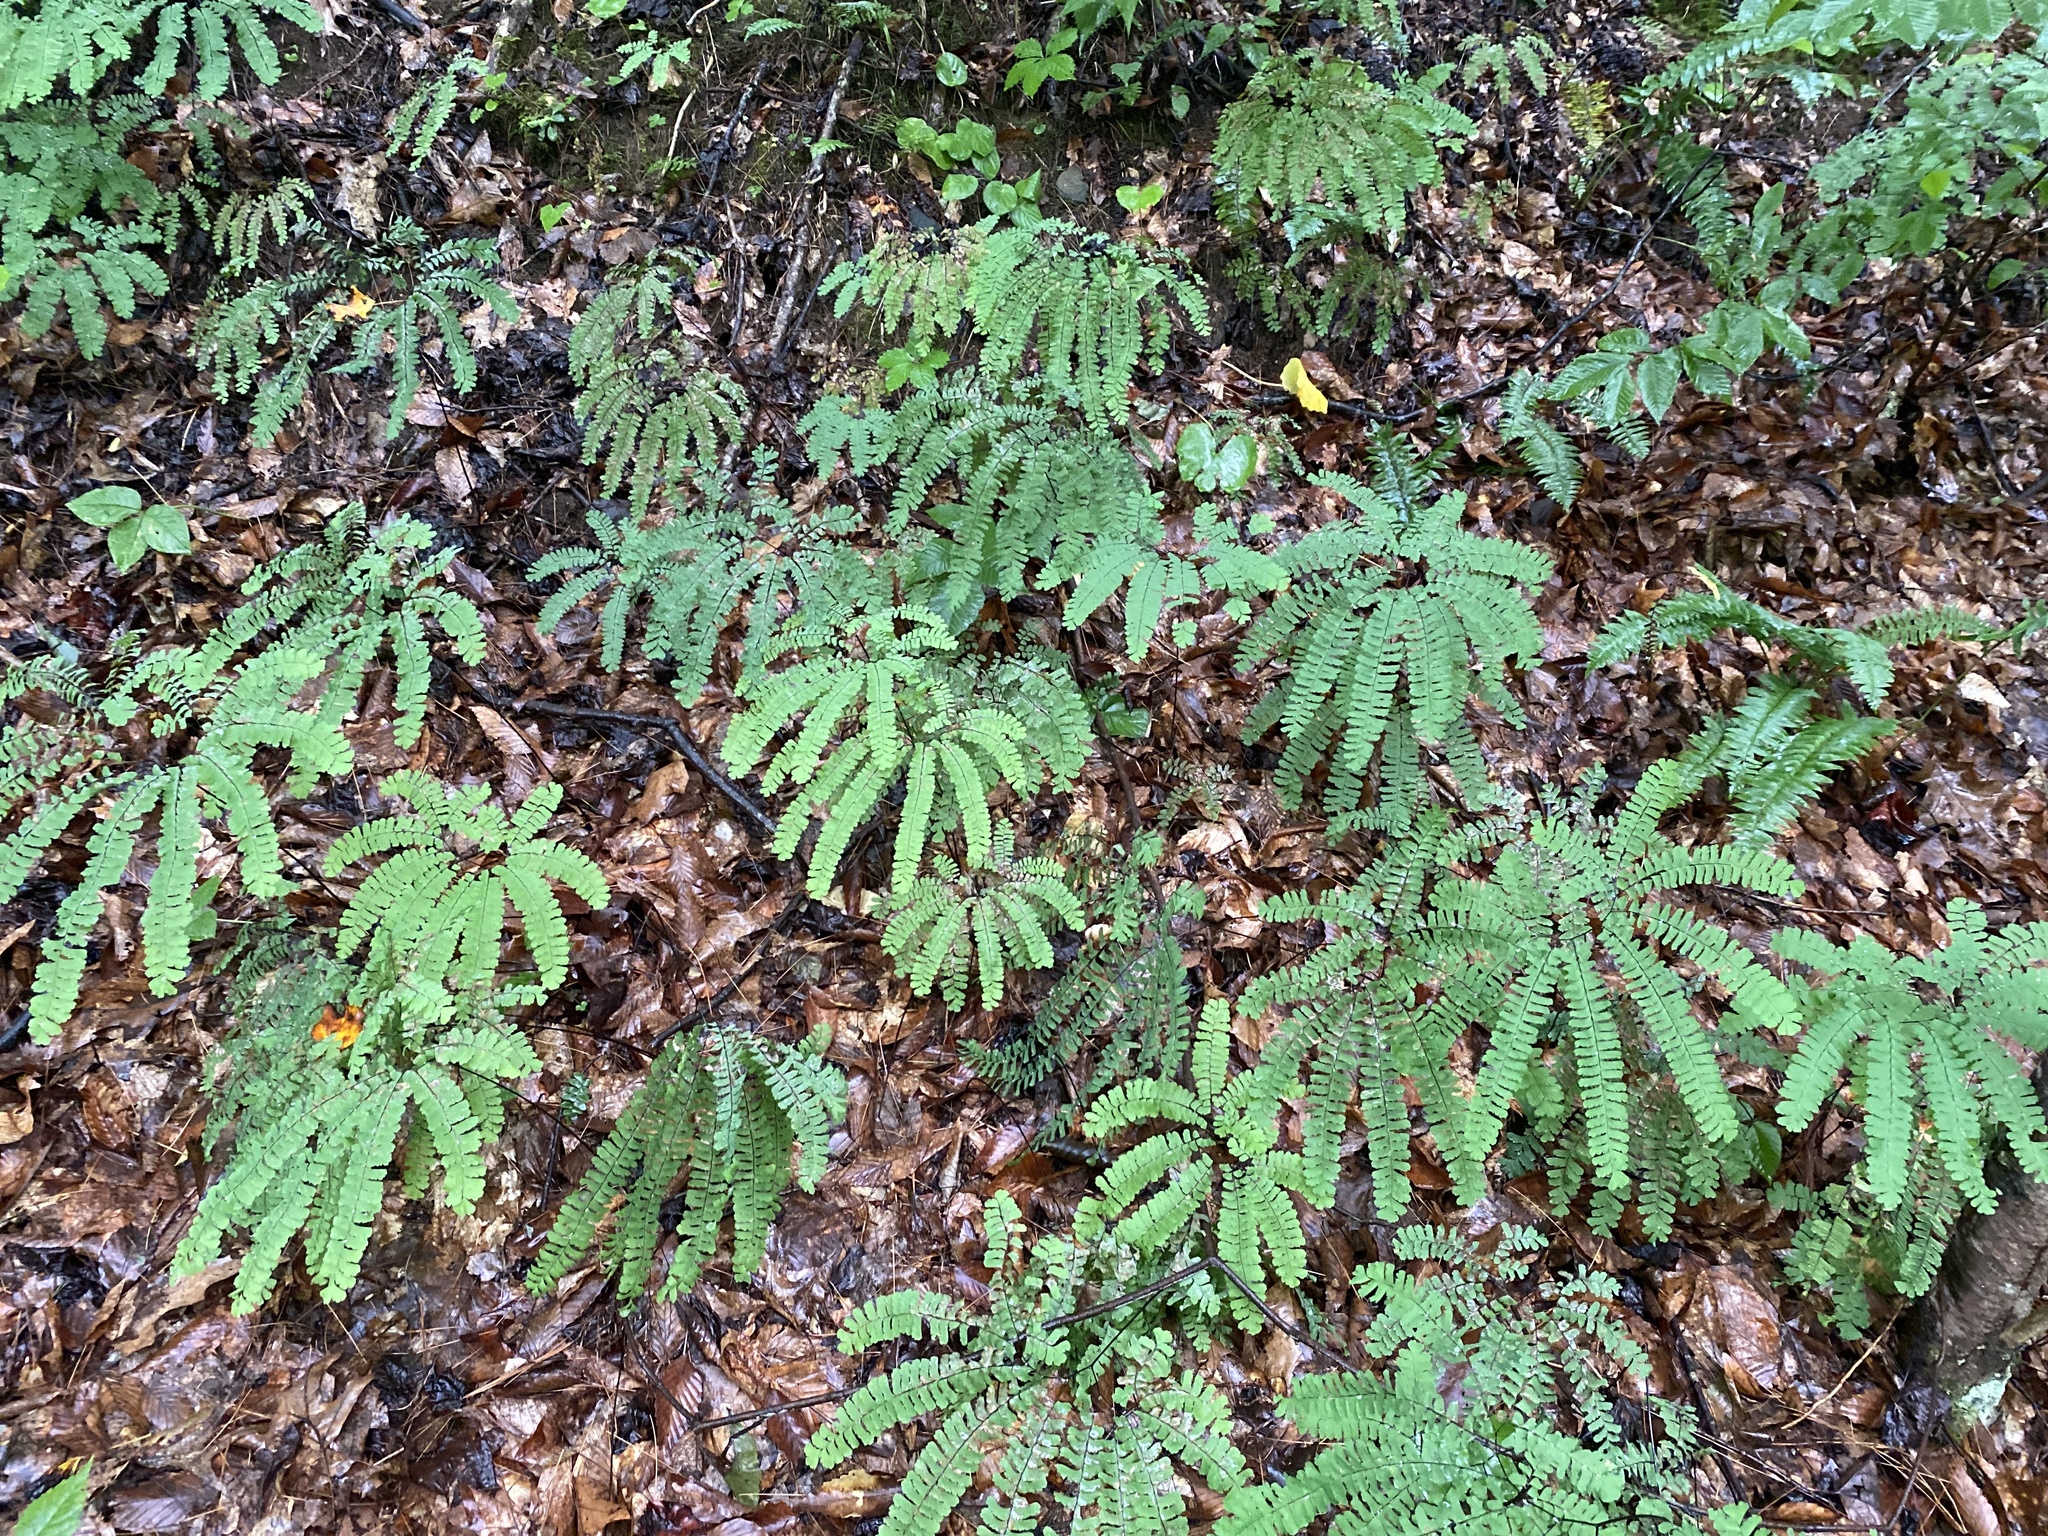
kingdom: Plantae
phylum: Tracheophyta
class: Polypodiopsida
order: Polypodiales
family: Pteridaceae
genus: Adiantum
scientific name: Adiantum pedatum
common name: Five-finger fern
